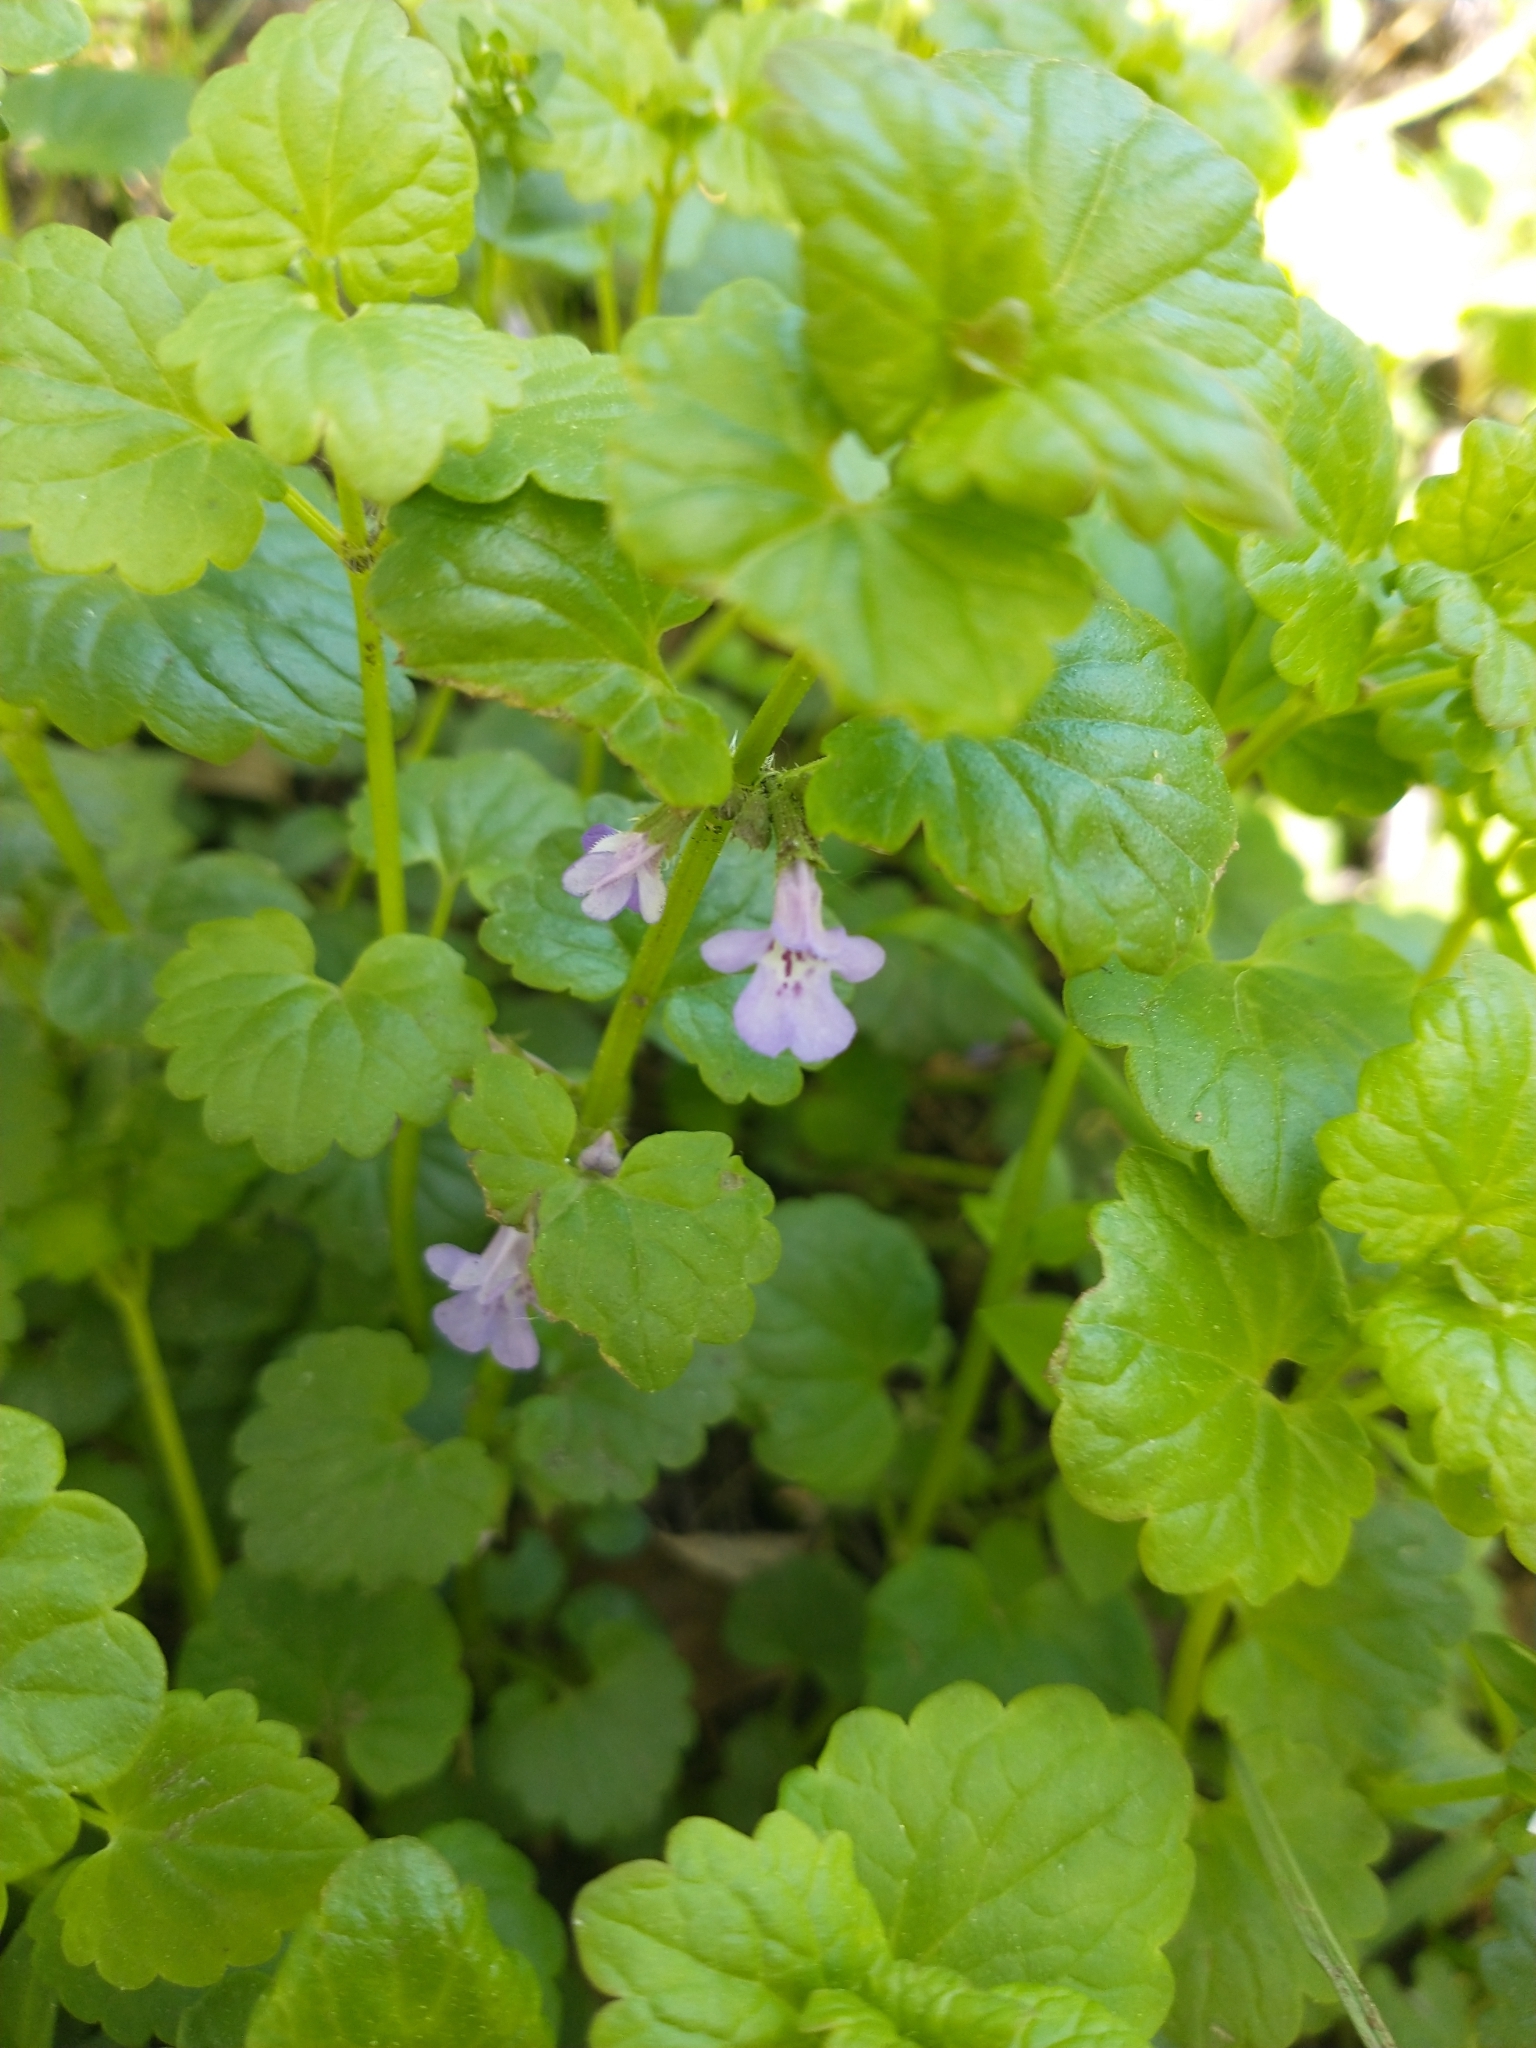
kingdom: Plantae
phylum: Tracheophyta
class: Magnoliopsida
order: Lamiales
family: Lamiaceae
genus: Glechoma
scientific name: Glechoma hederacea
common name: Ground ivy
